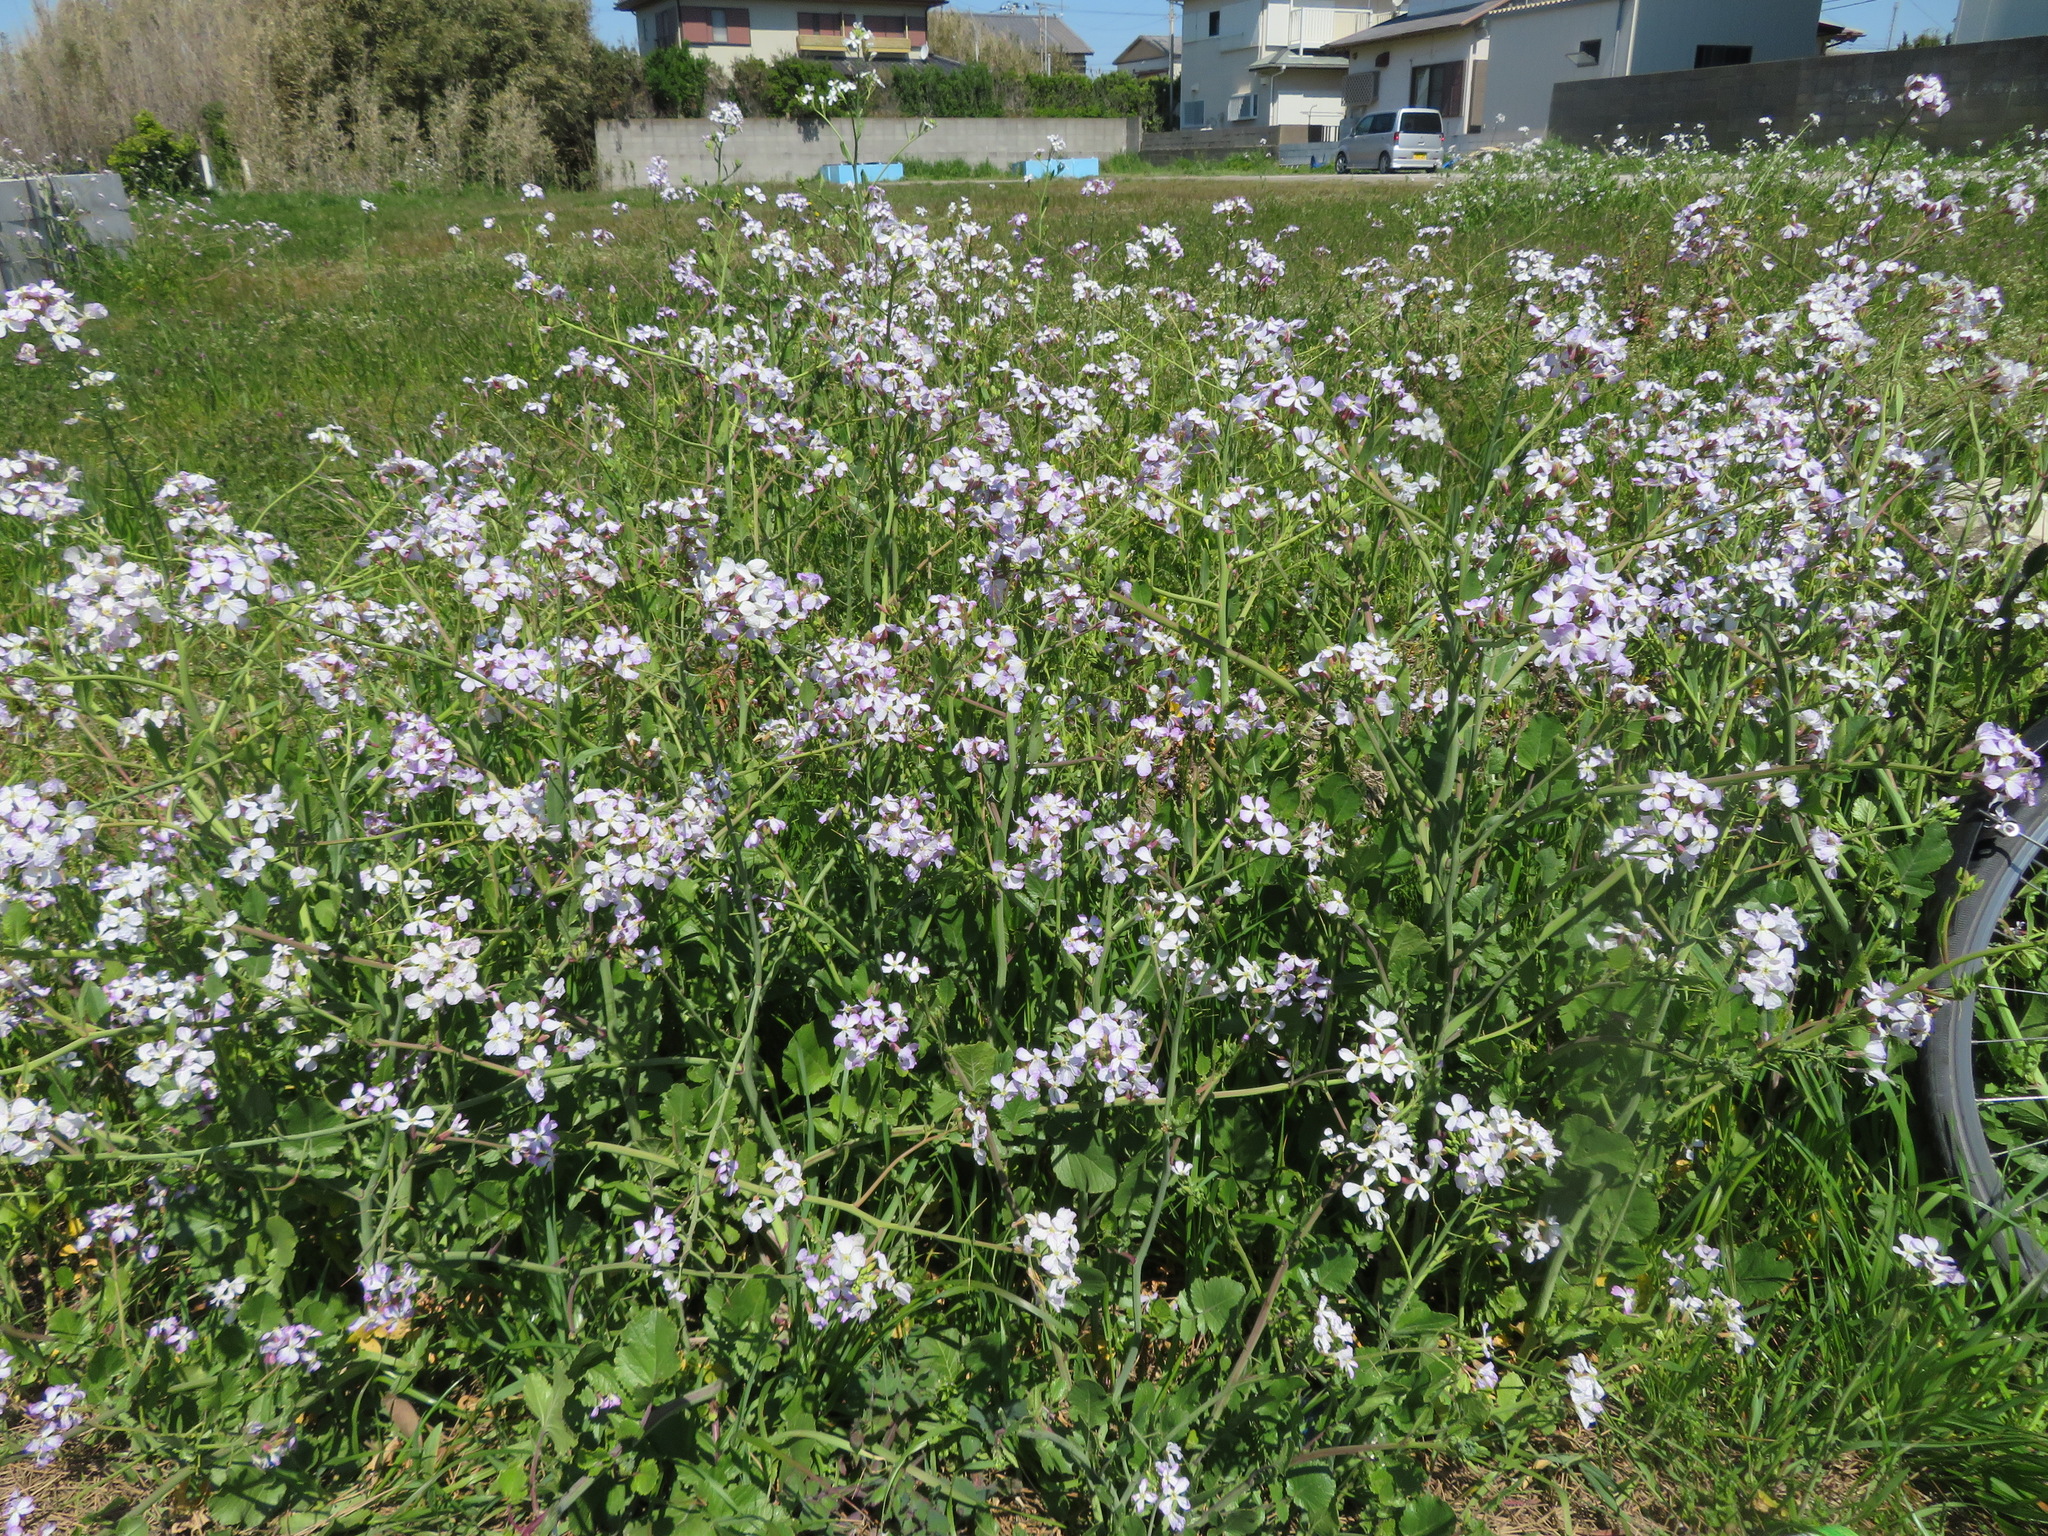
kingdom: Plantae
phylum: Tracheophyta
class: Magnoliopsida
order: Brassicales
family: Brassicaceae
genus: Raphanus
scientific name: Raphanus sativus
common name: Cultivated radish
